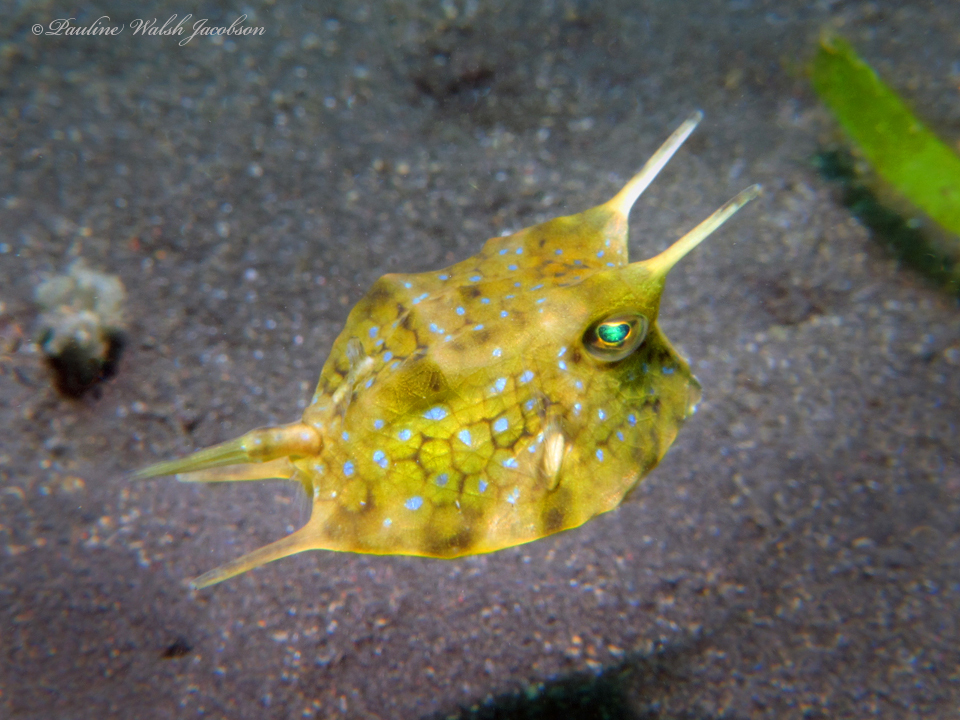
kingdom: Animalia
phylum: Chordata
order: Tetraodontiformes
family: Ostraciidae
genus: Lactoria
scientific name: Lactoria cornuta
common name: Longhorn cowfish
